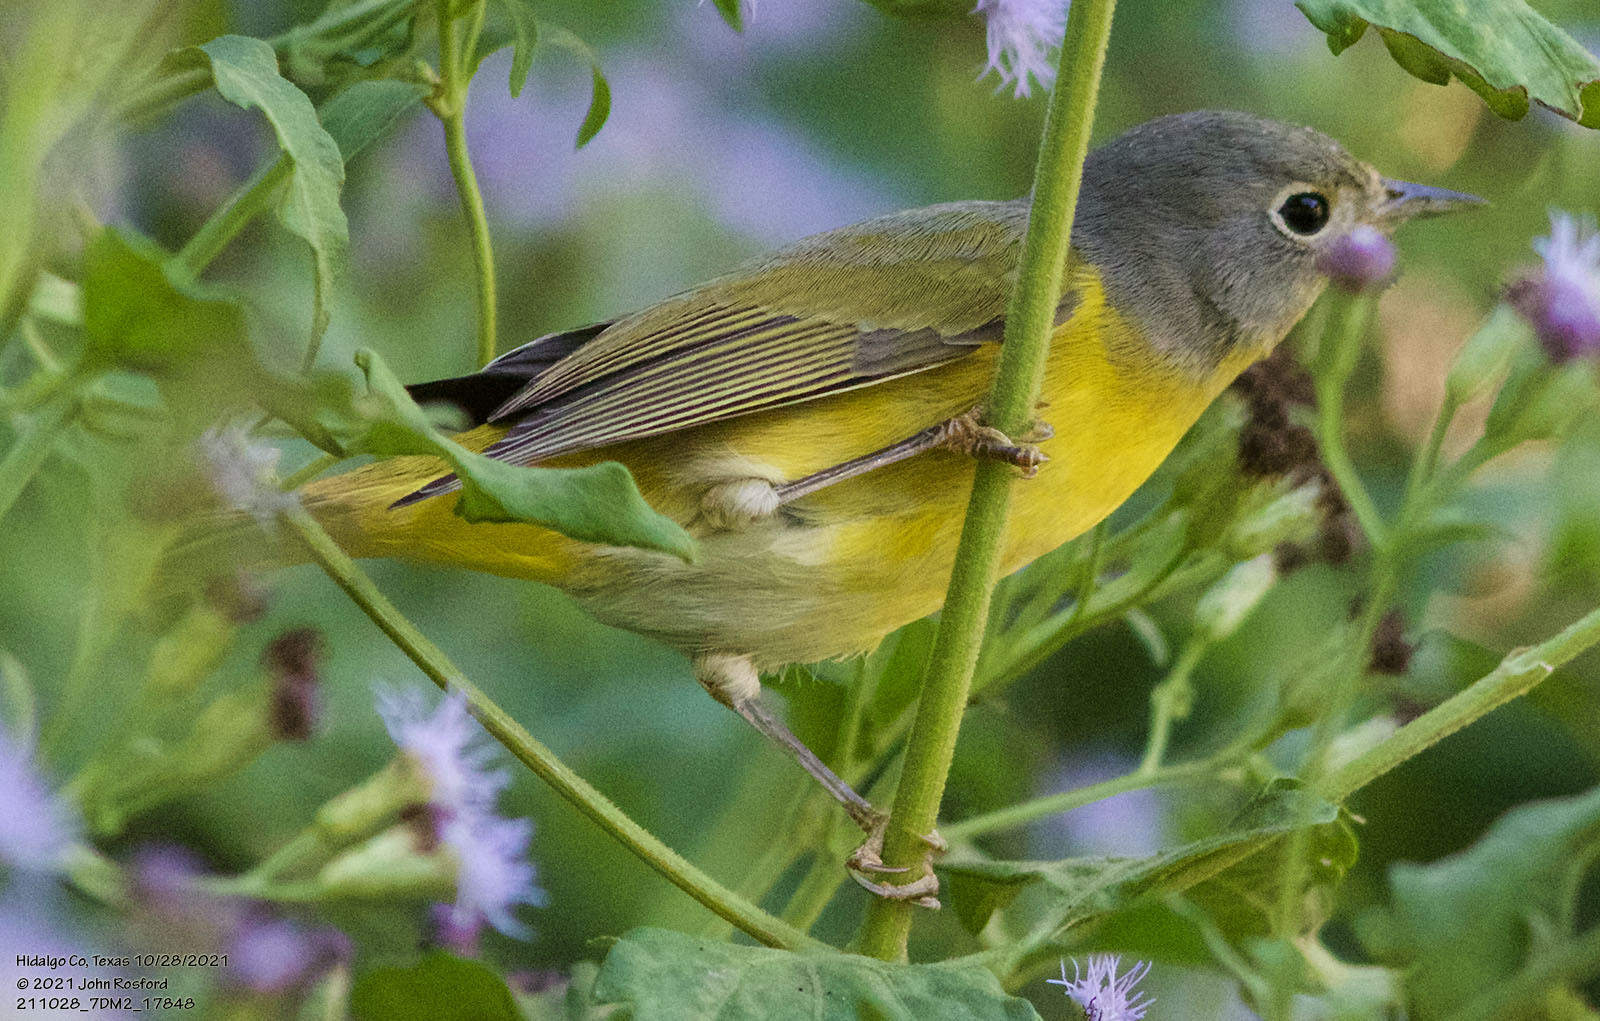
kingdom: Animalia
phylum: Chordata
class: Aves
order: Passeriformes
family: Parulidae
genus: Leiothlypis
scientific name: Leiothlypis ruficapilla
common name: Nashville warbler
